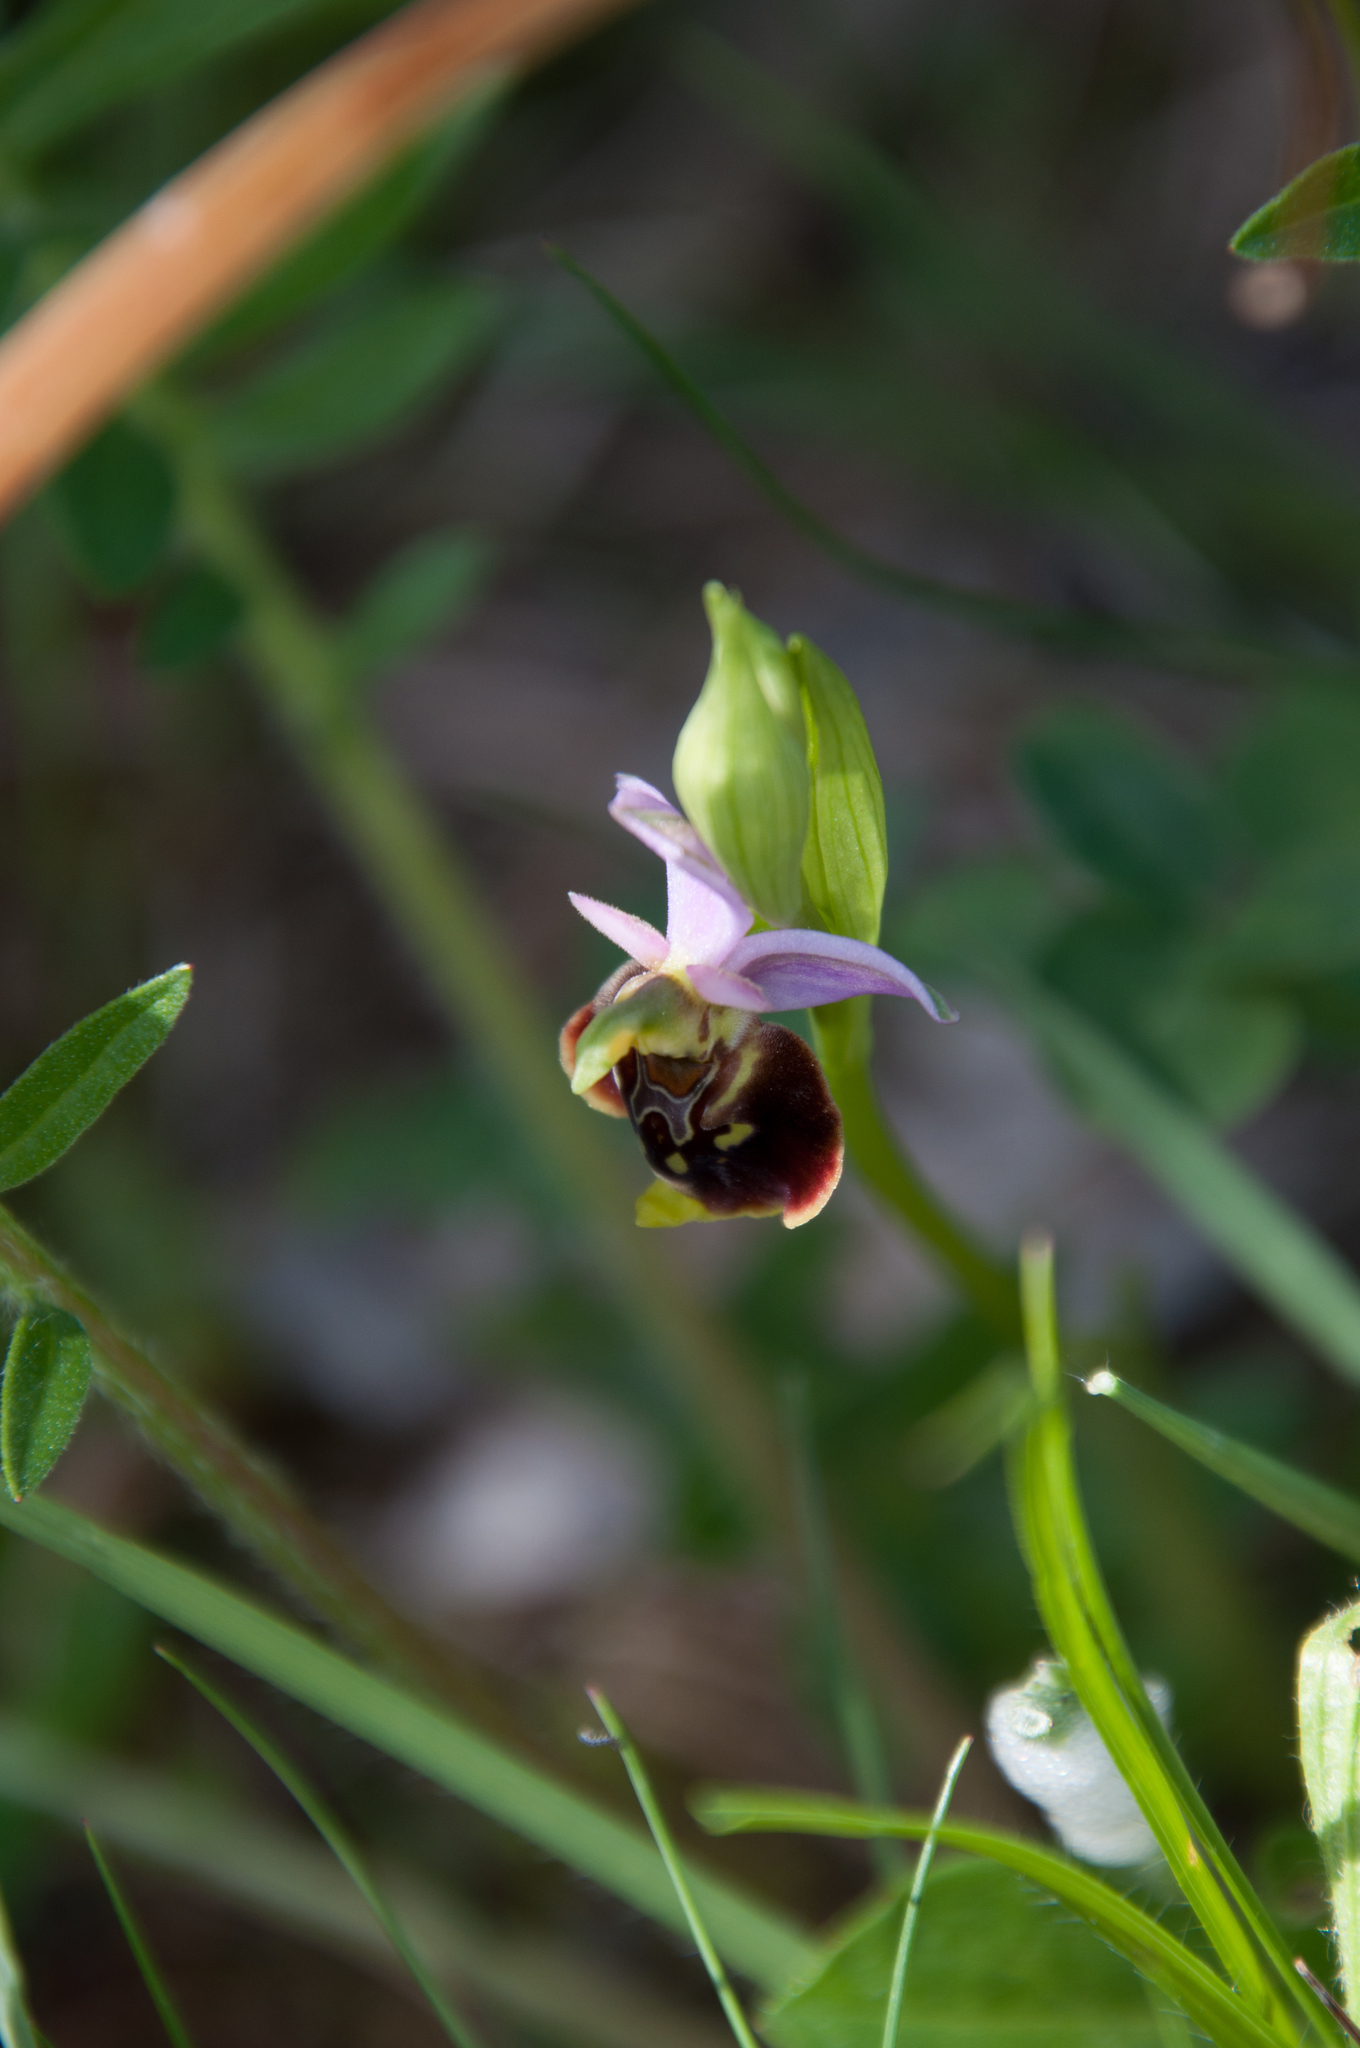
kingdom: Plantae
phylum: Tracheophyta
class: Liliopsida
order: Asparagales
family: Orchidaceae
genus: Ophrys
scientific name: Ophrys holosericea
